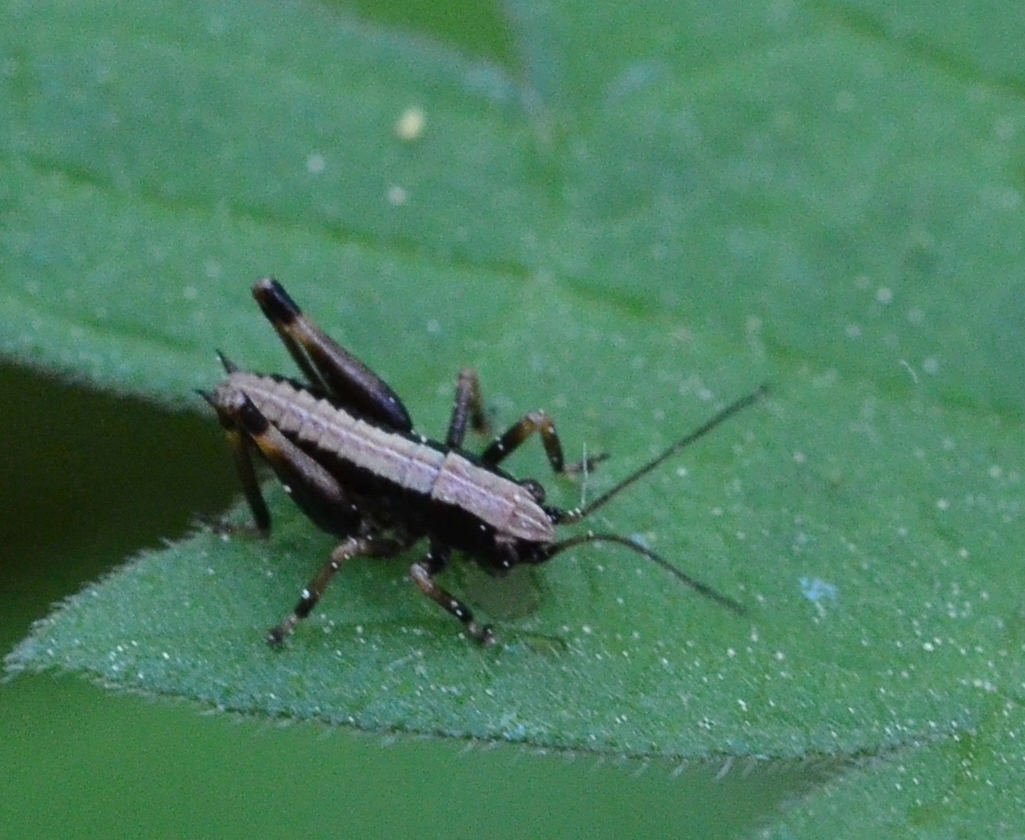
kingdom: Animalia
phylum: Arthropoda
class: Insecta
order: Orthoptera
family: Tettigoniidae
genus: Pholidoptera
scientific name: Pholidoptera griseoaptera
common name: Dark bush-cricket
